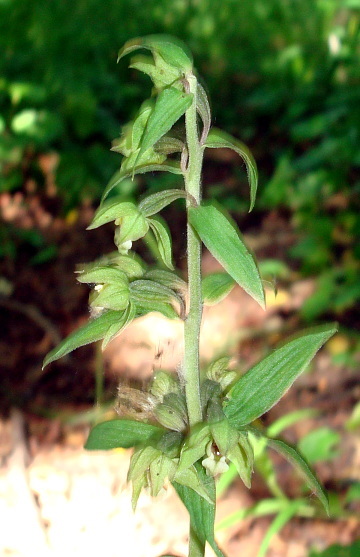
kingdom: Plantae
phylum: Tracheophyta
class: Liliopsida
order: Asparagales
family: Orchidaceae
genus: Epipactis
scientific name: Epipactis papillosa
